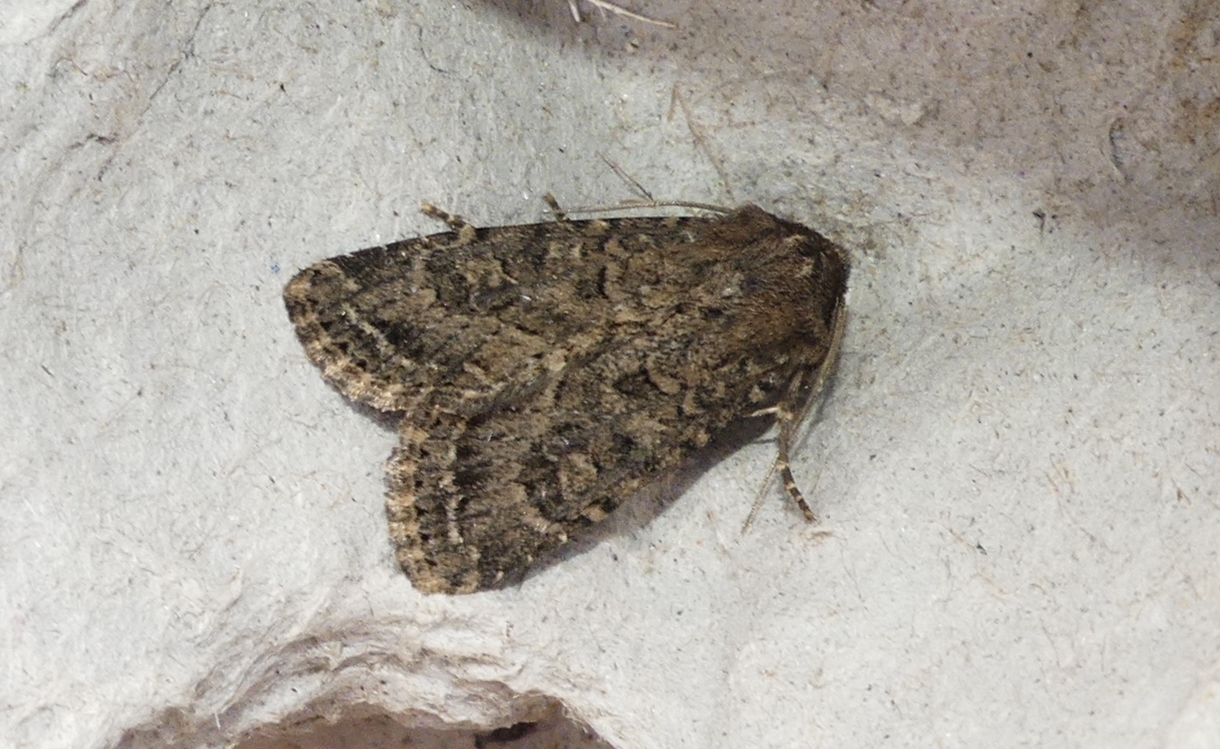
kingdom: Animalia
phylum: Arthropoda
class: Insecta
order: Lepidoptera
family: Noctuidae
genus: Apamea
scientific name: Apamea devastator
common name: Glassy cutworm
